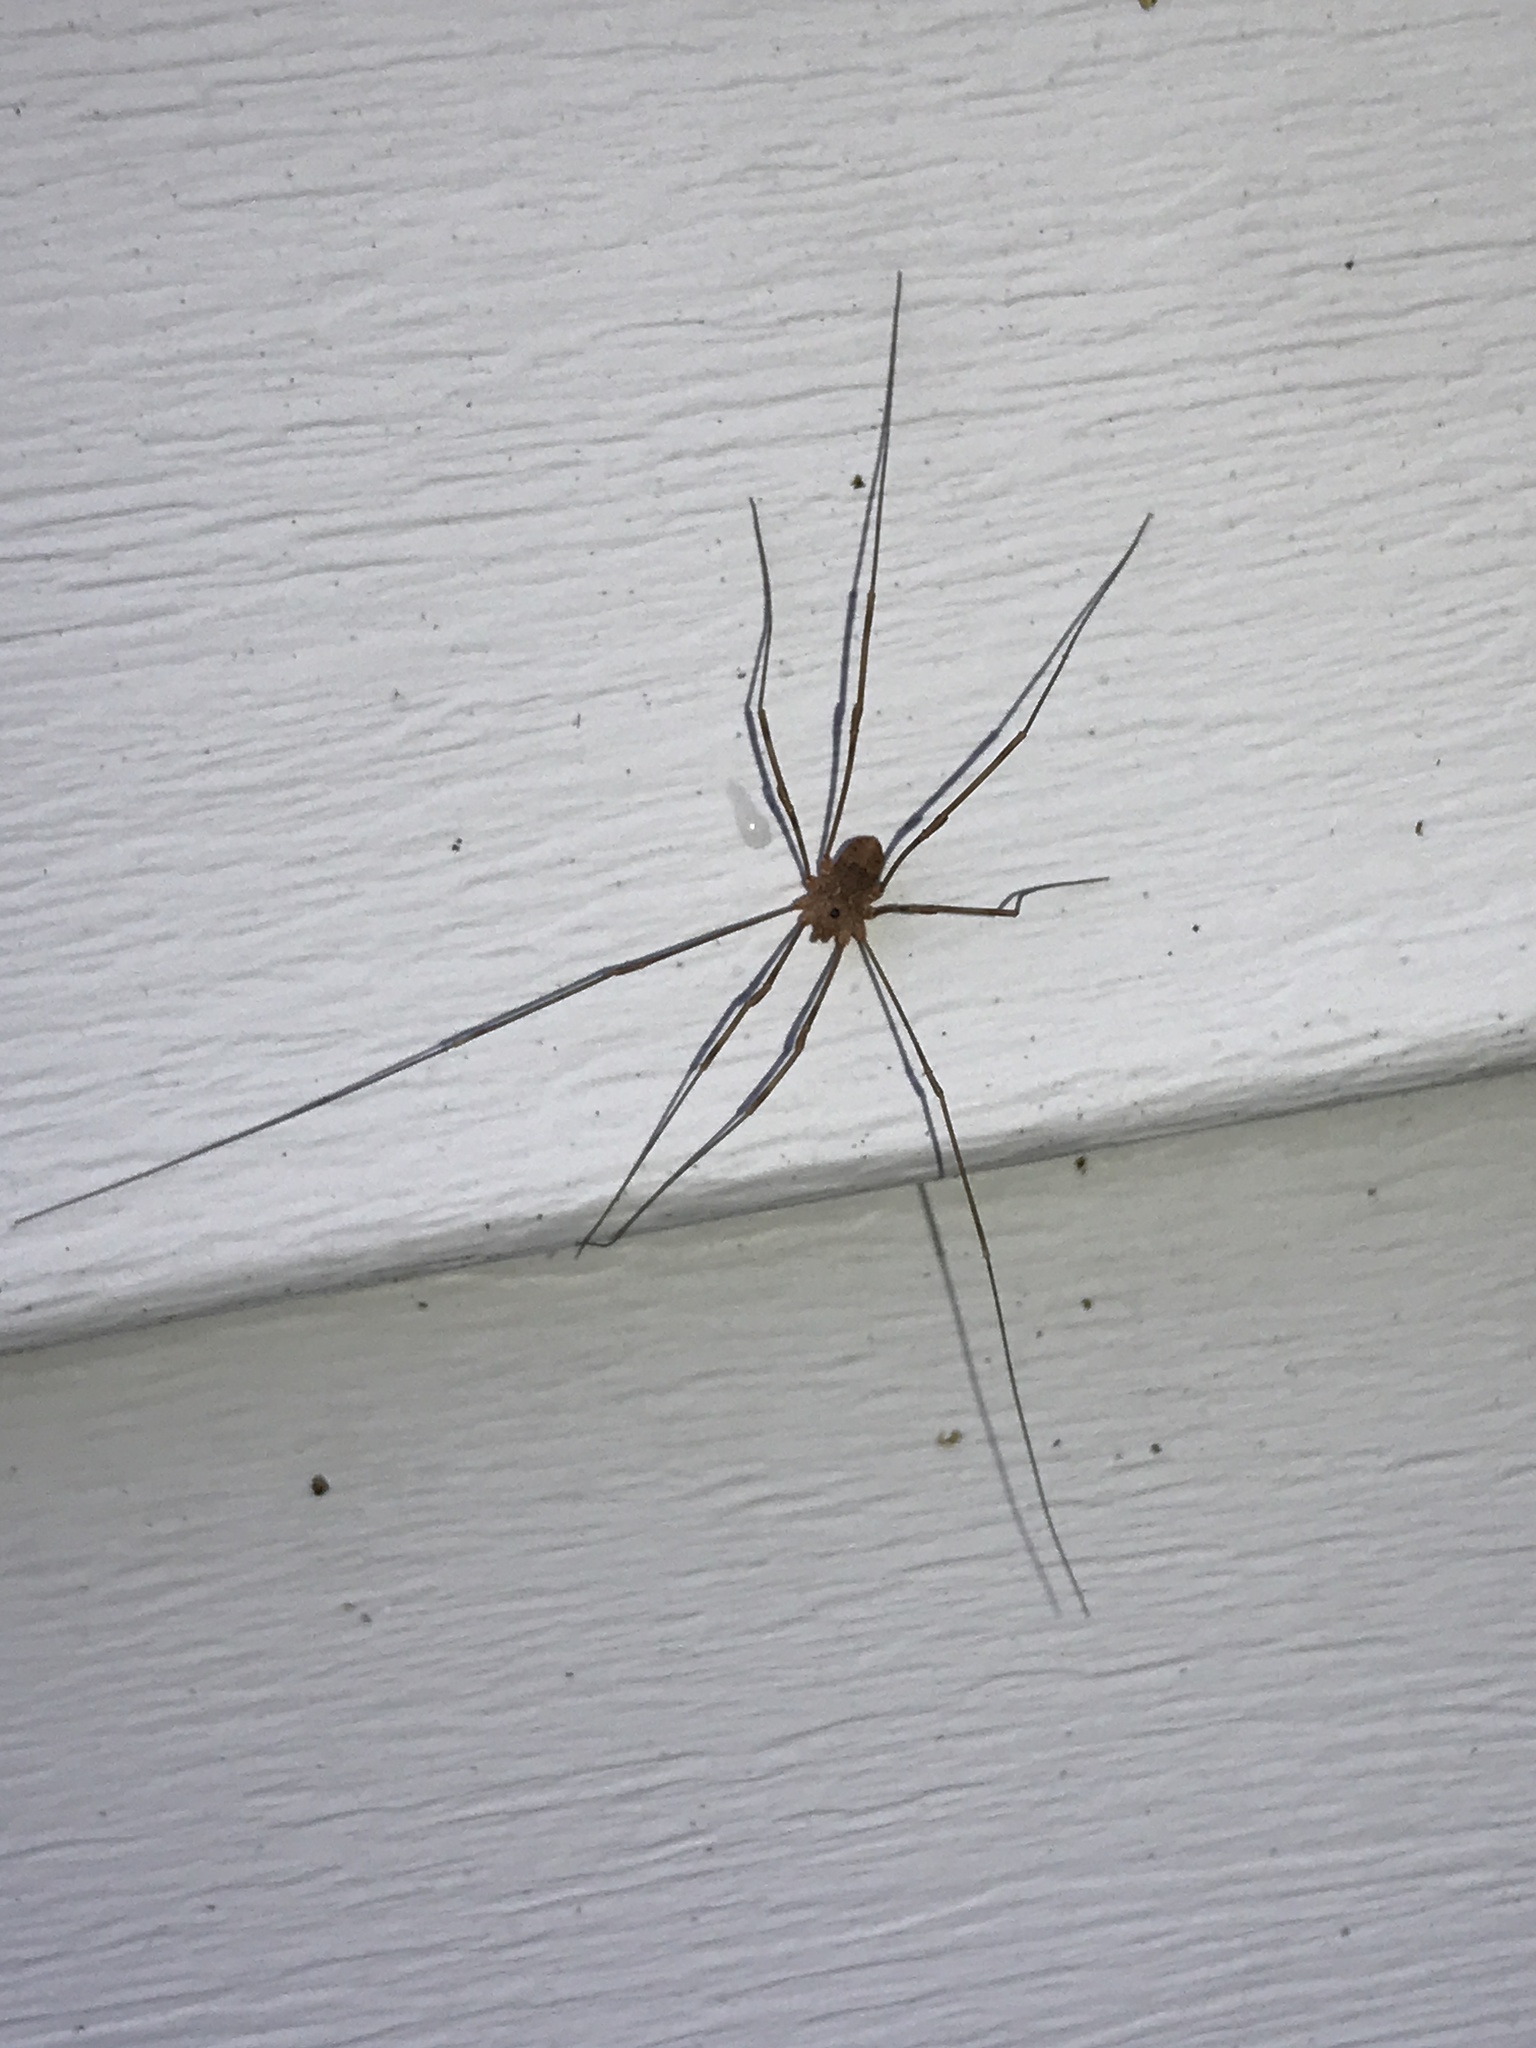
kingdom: Animalia
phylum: Arthropoda
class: Arachnida
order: Opiliones
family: Sclerosomatidae
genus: Leiobunum
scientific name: Leiobunum ventricosum
